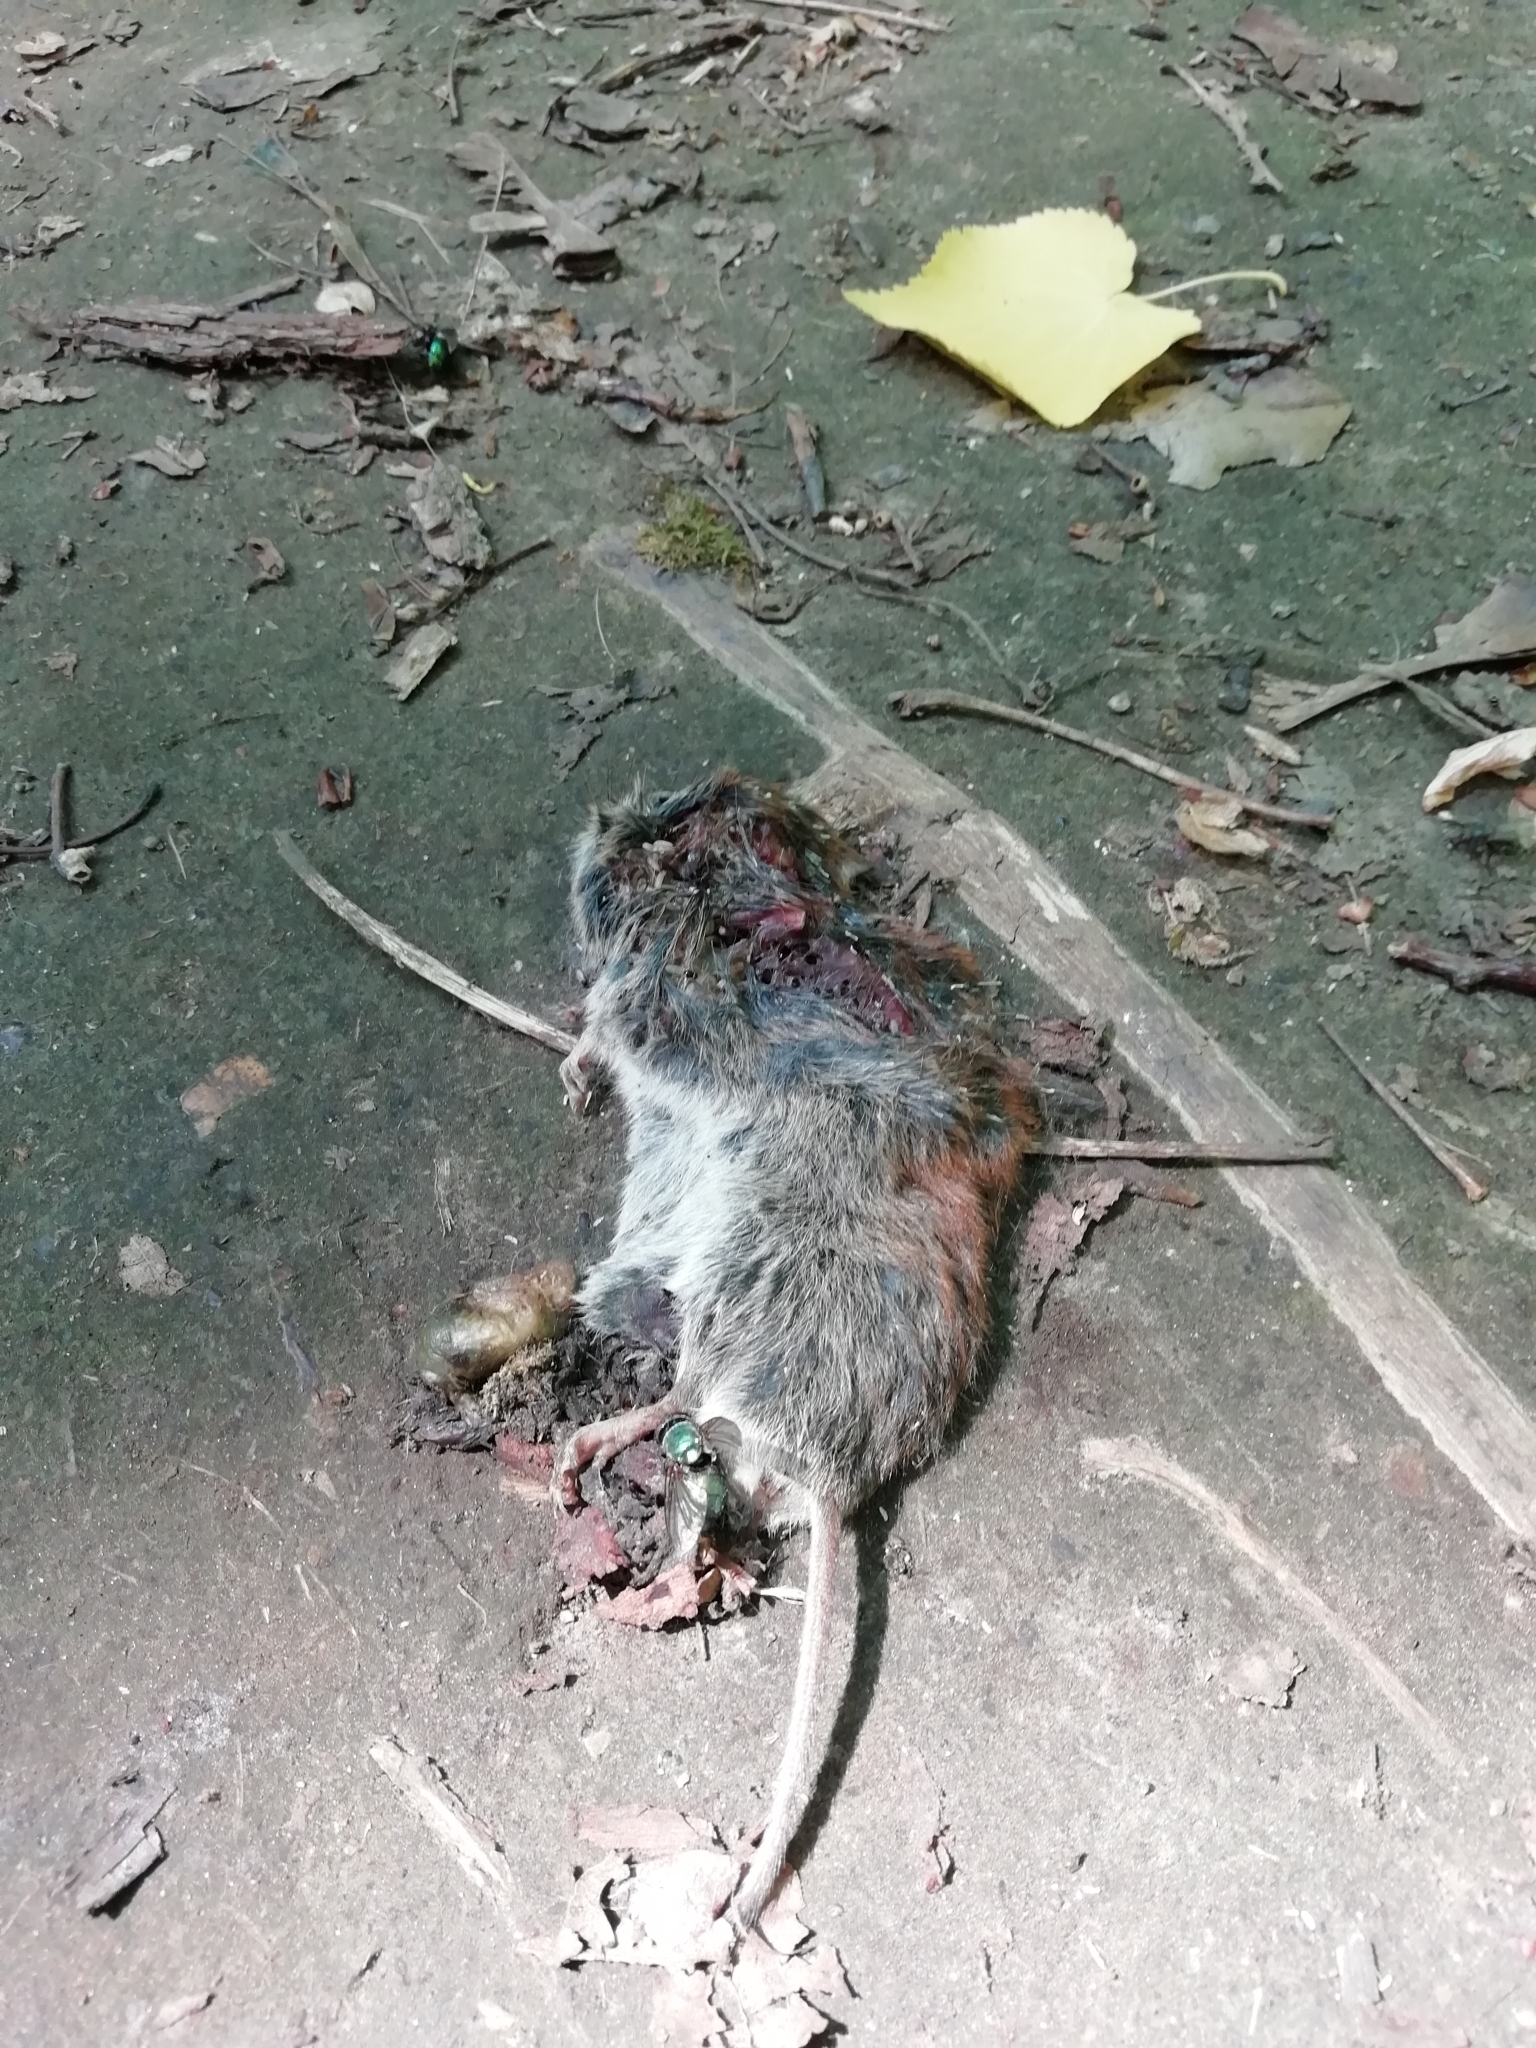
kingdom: Animalia
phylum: Chordata
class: Mammalia
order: Rodentia
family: Cricetidae
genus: Myodes
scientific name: Myodes glareolus
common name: Bank vole
